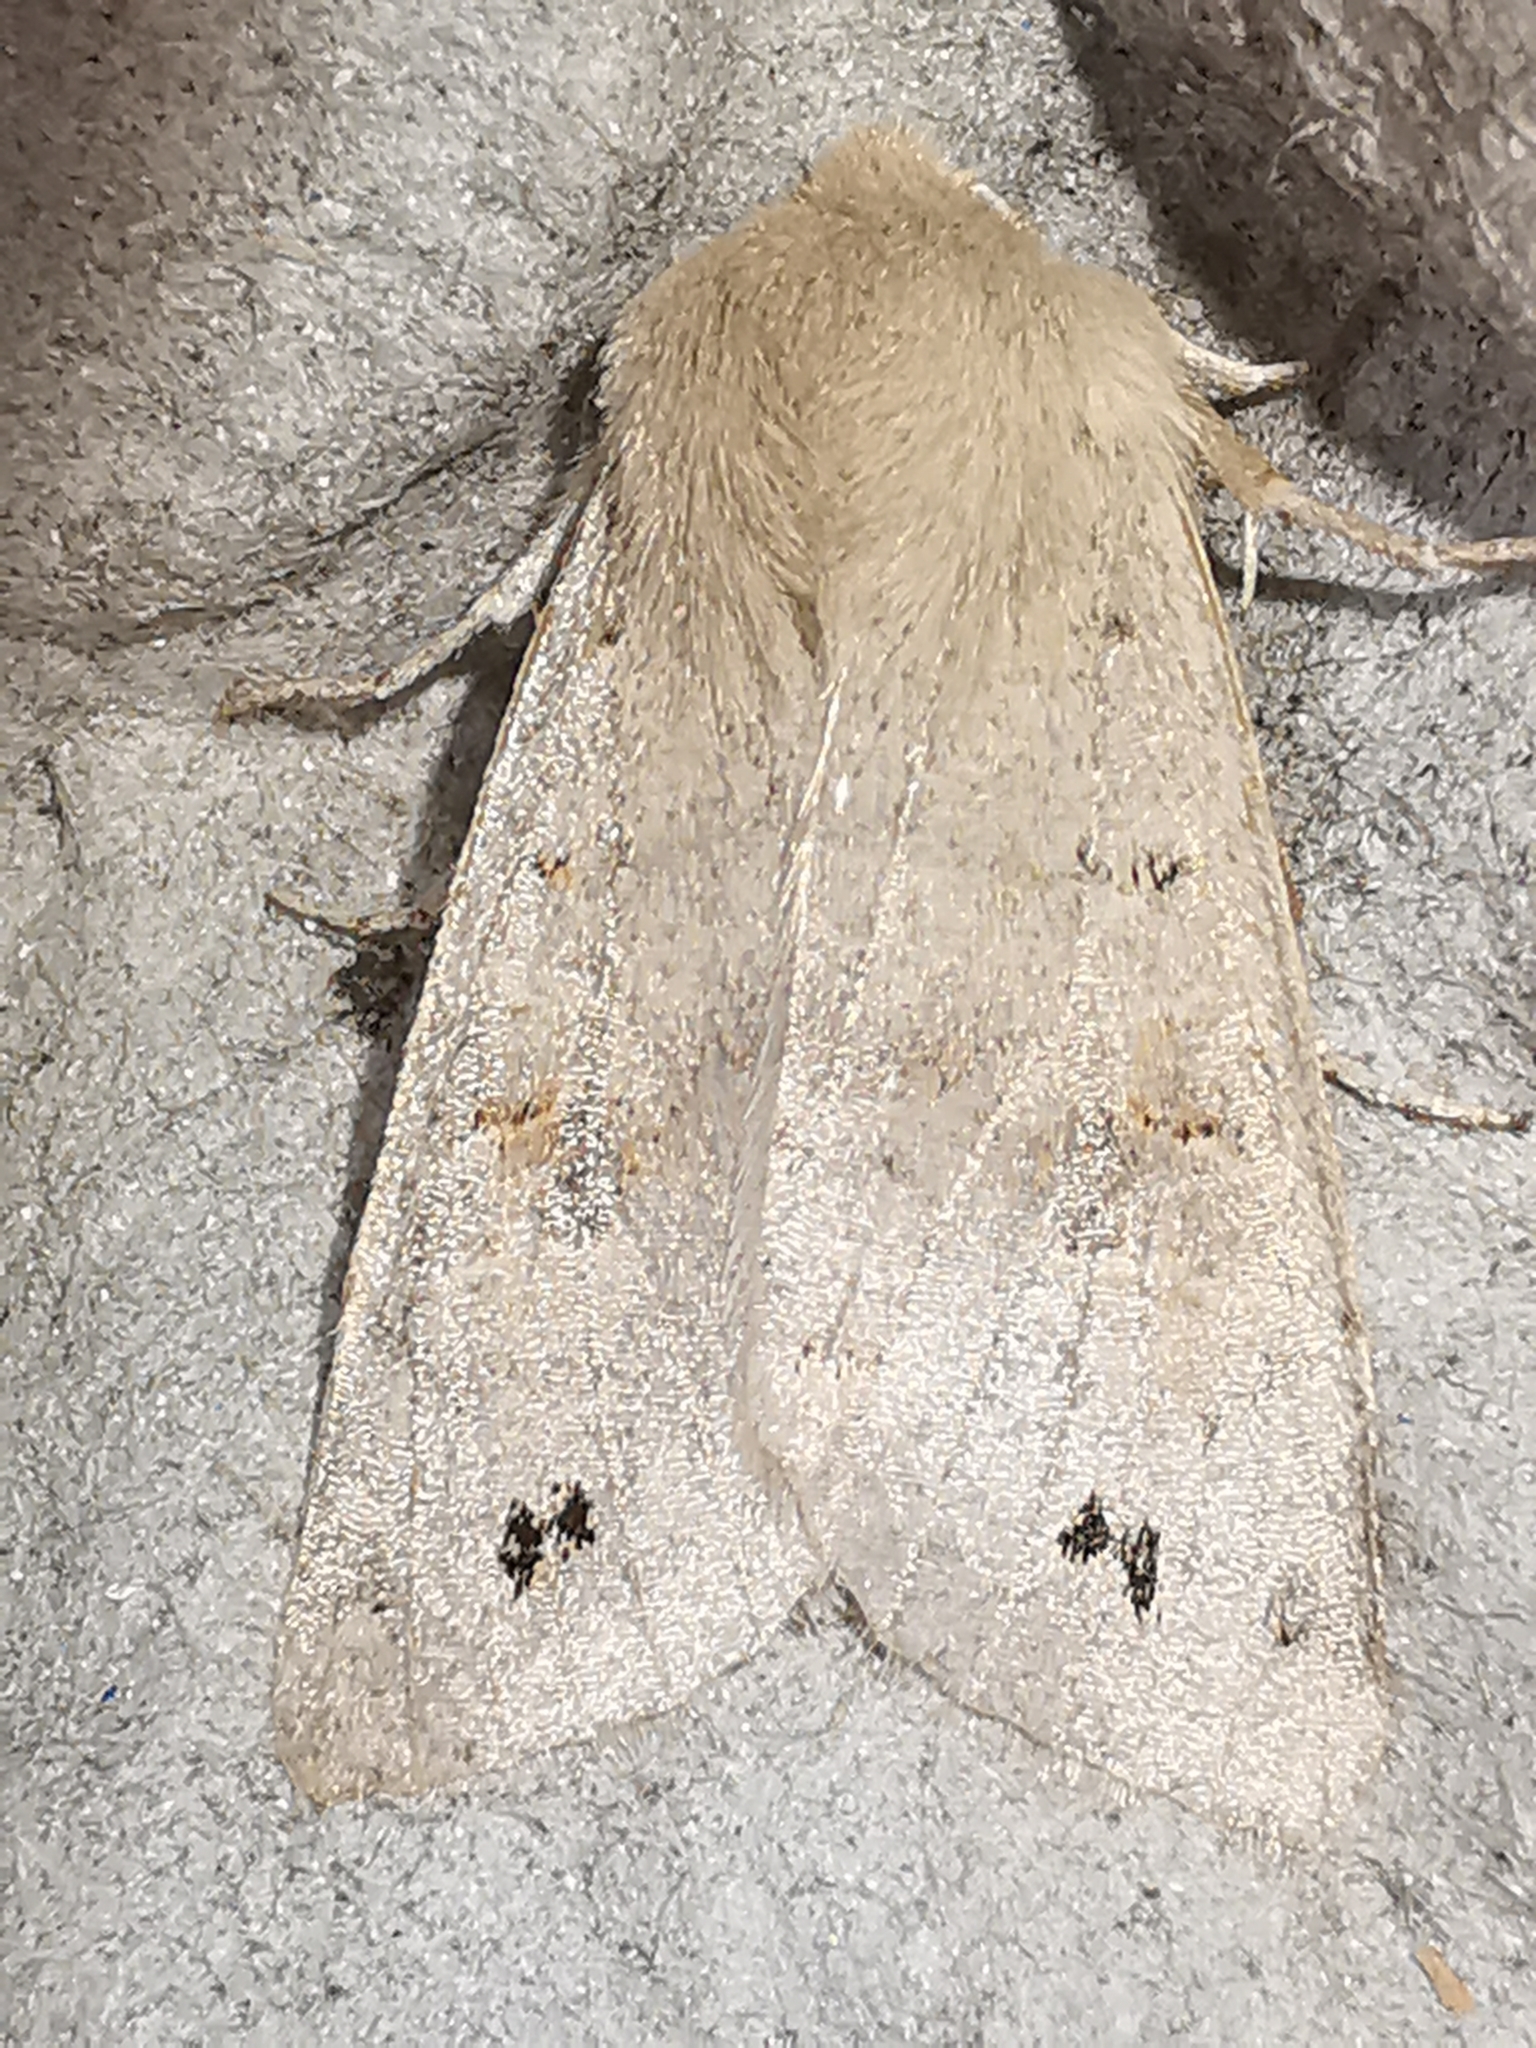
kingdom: Animalia
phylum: Arthropoda
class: Insecta
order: Lepidoptera
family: Noctuidae
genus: Anorthoa
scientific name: Anorthoa munda
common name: Twin-spotted quaker
